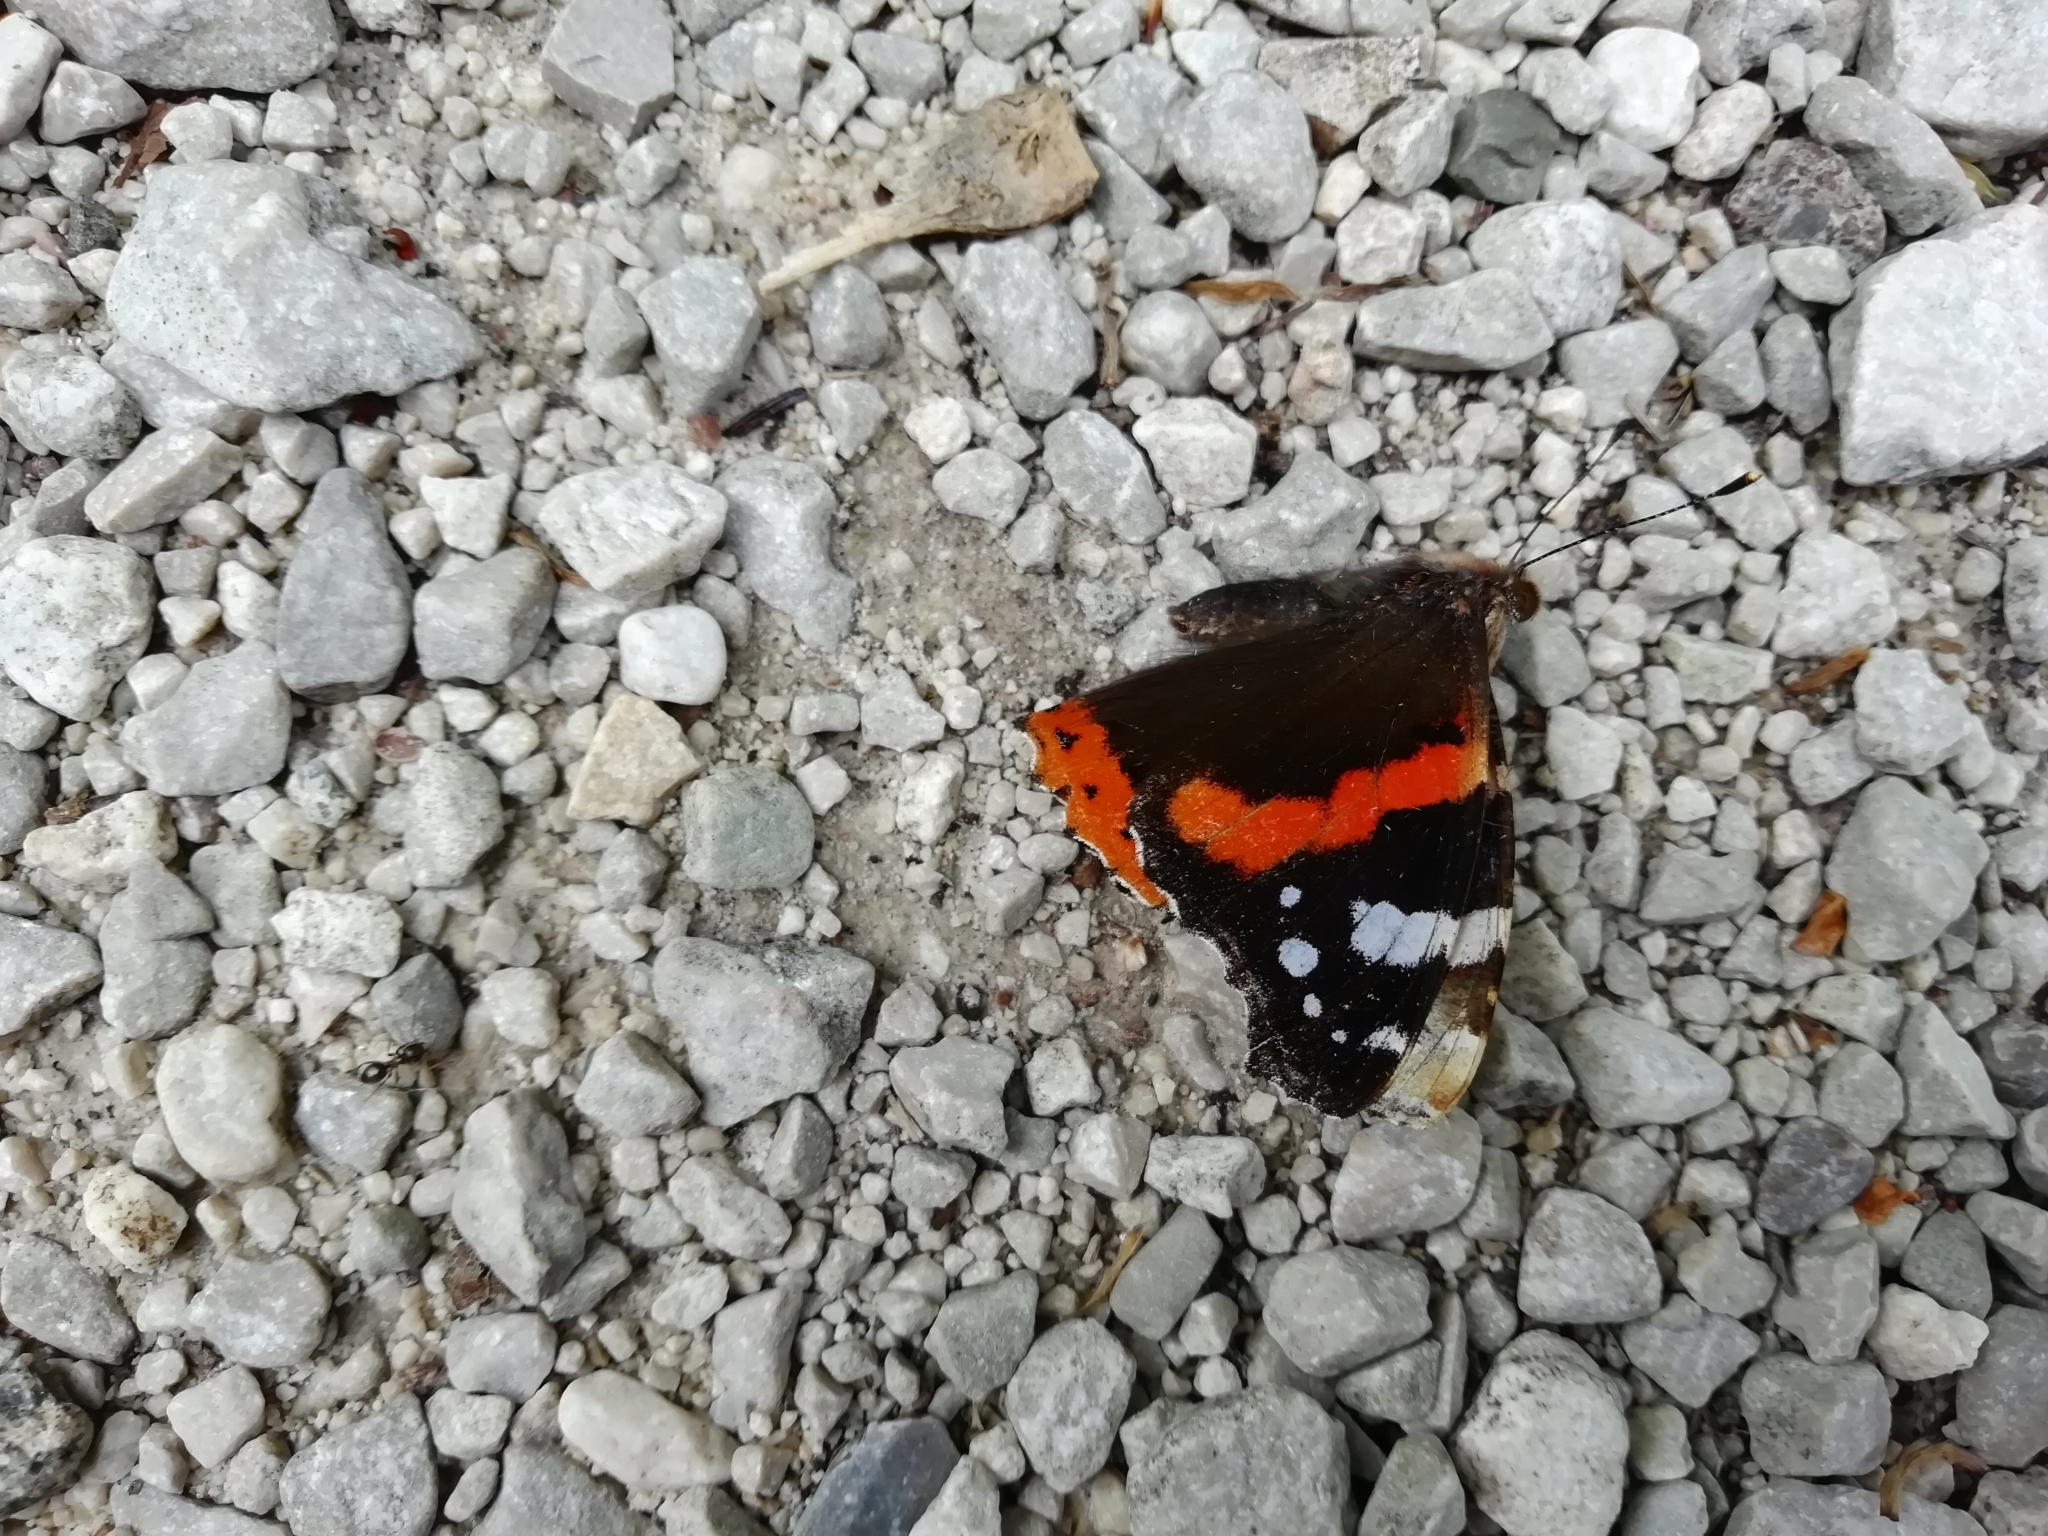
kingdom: Animalia
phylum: Arthropoda
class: Insecta
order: Lepidoptera
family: Nymphalidae
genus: Vanessa
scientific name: Vanessa atalanta
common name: Red admiral
